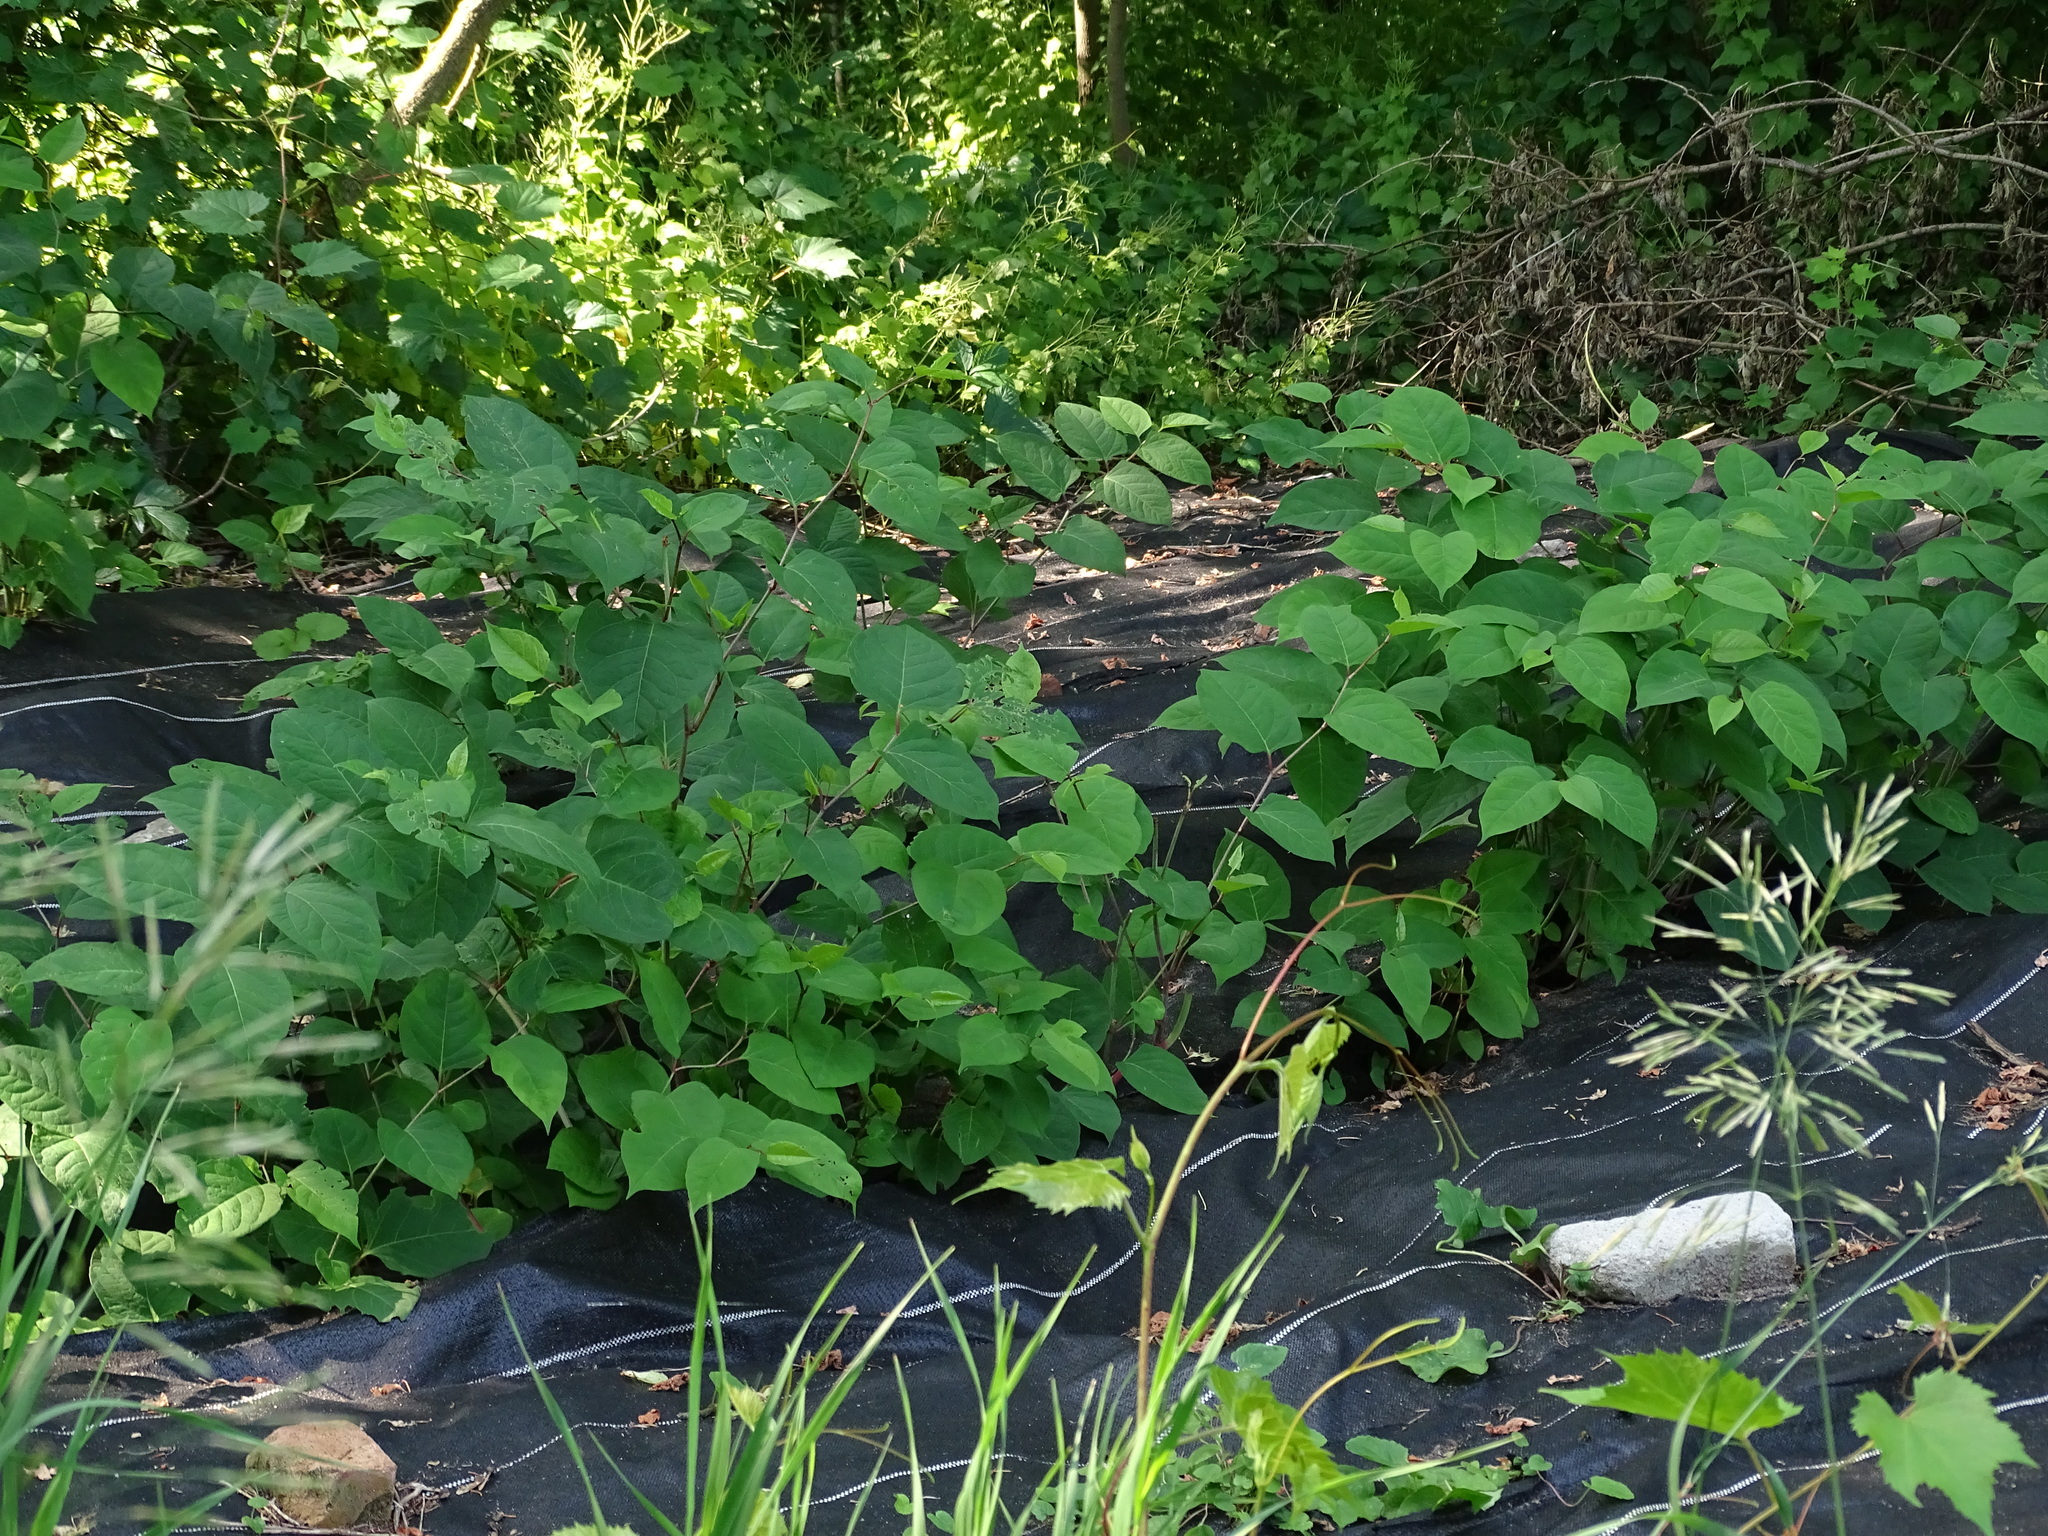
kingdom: Plantae
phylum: Tracheophyta
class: Magnoliopsida
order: Caryophyllales
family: Polygonaceae
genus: Reynoutria
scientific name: Reynoutria japonica
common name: Japanese knotweed
